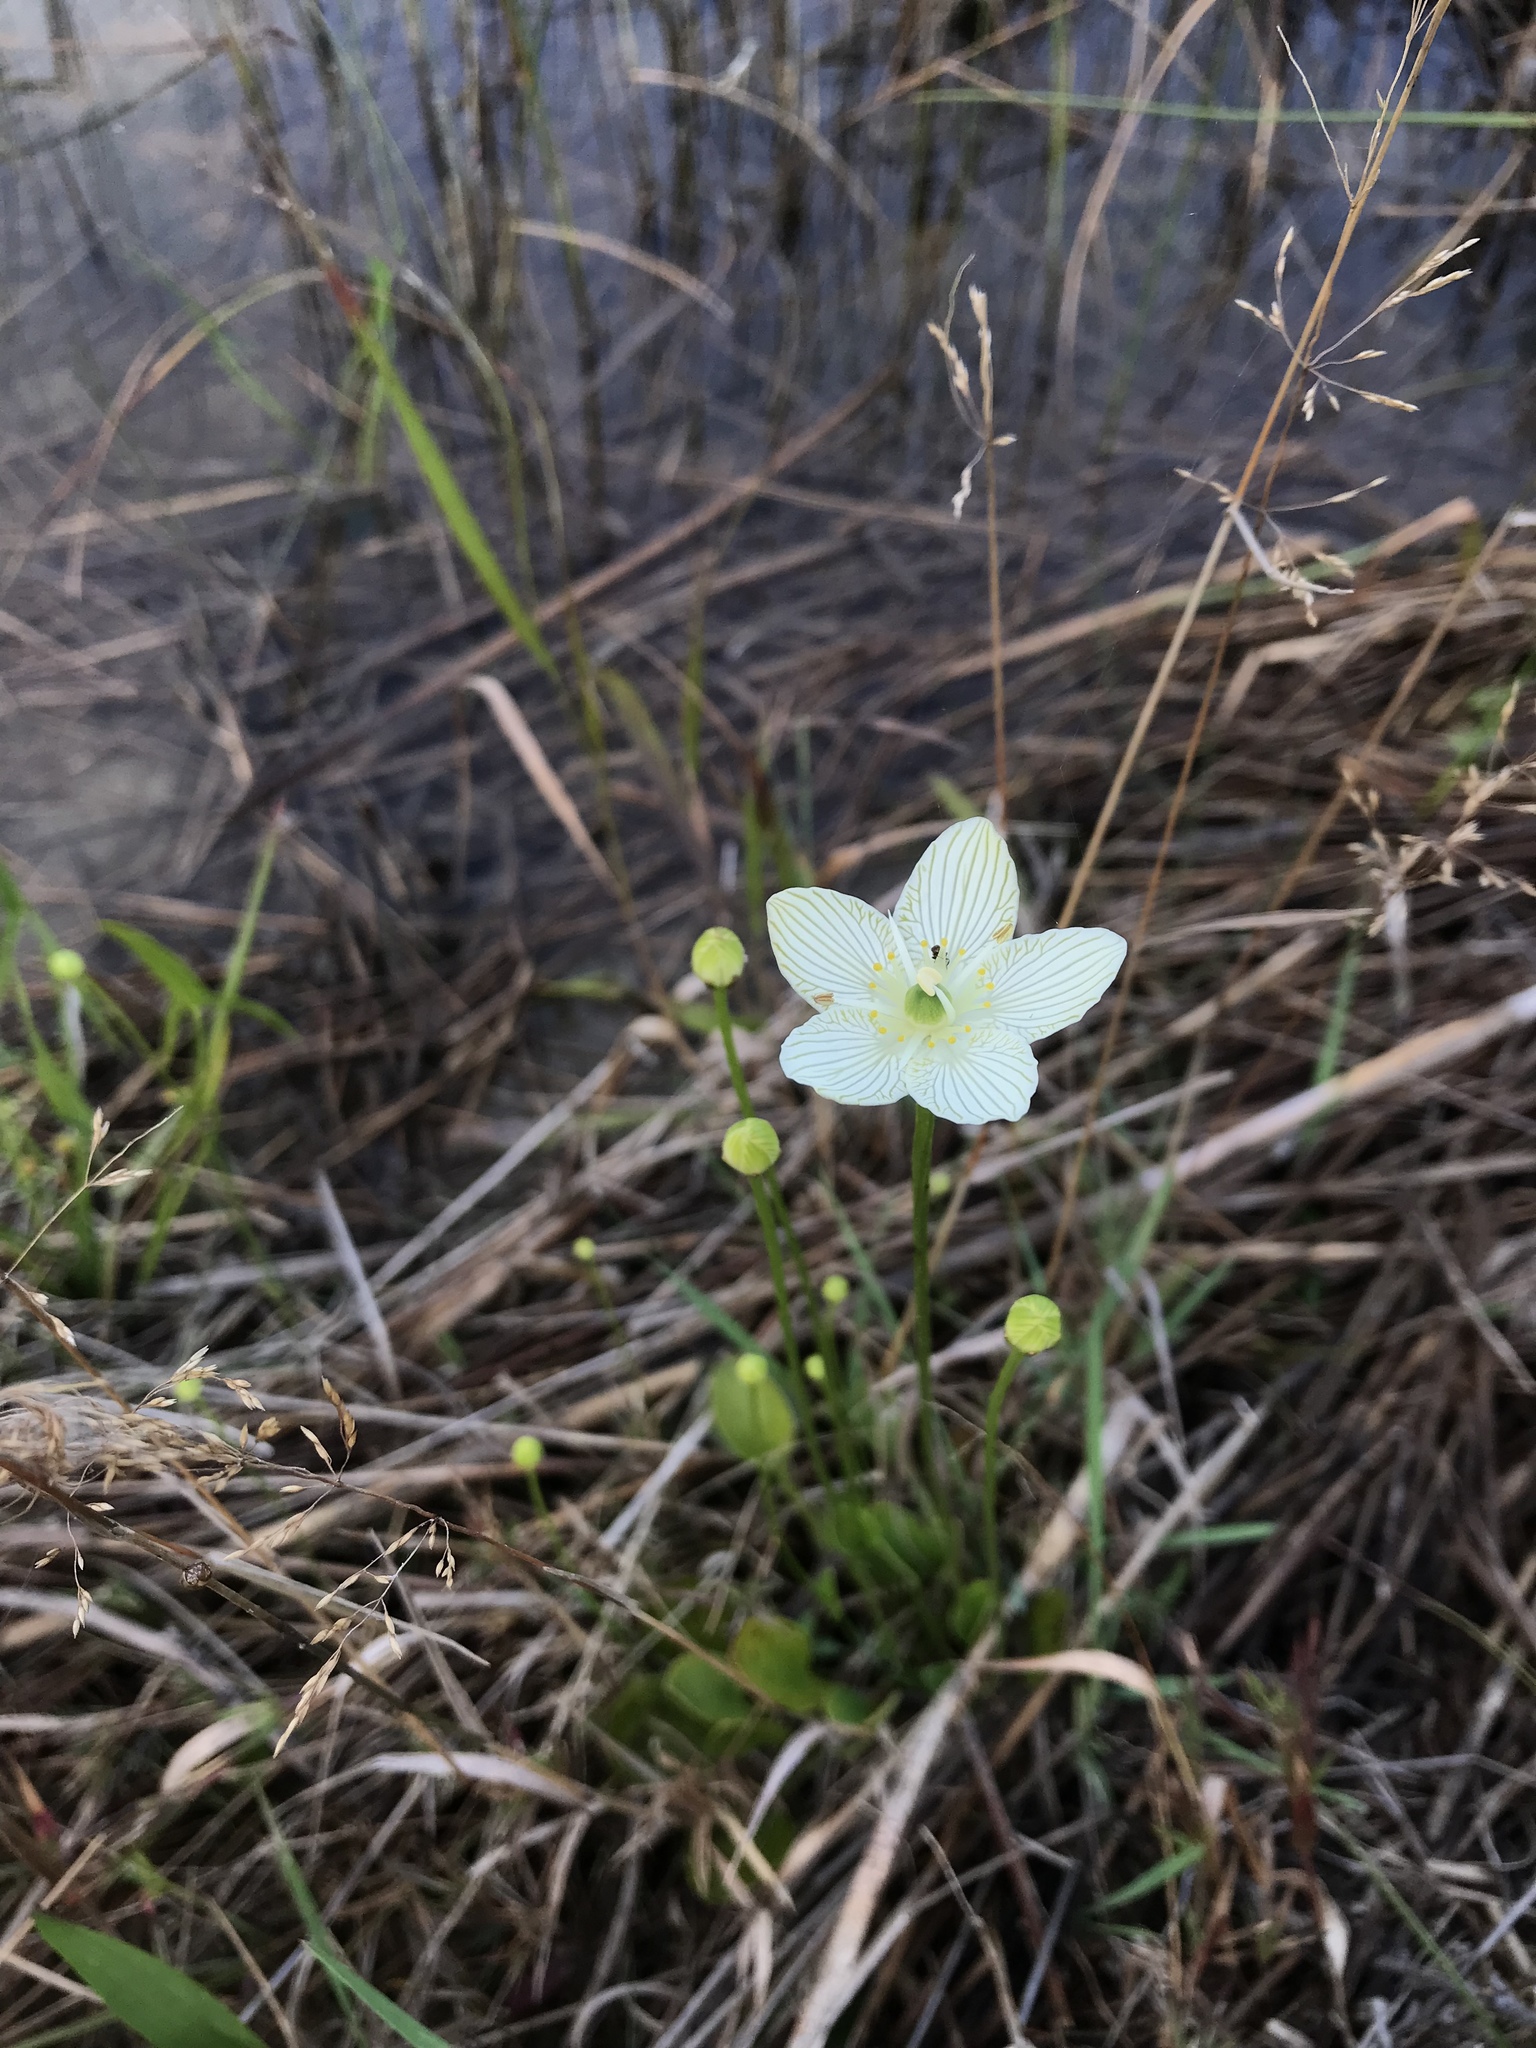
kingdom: Plantae
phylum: Tracheophyta
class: Magnoliopsida
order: Celastrales
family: Parnassiaceae
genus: Parnassia
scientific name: Parnassia glauca
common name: American grass-of-parnassus
